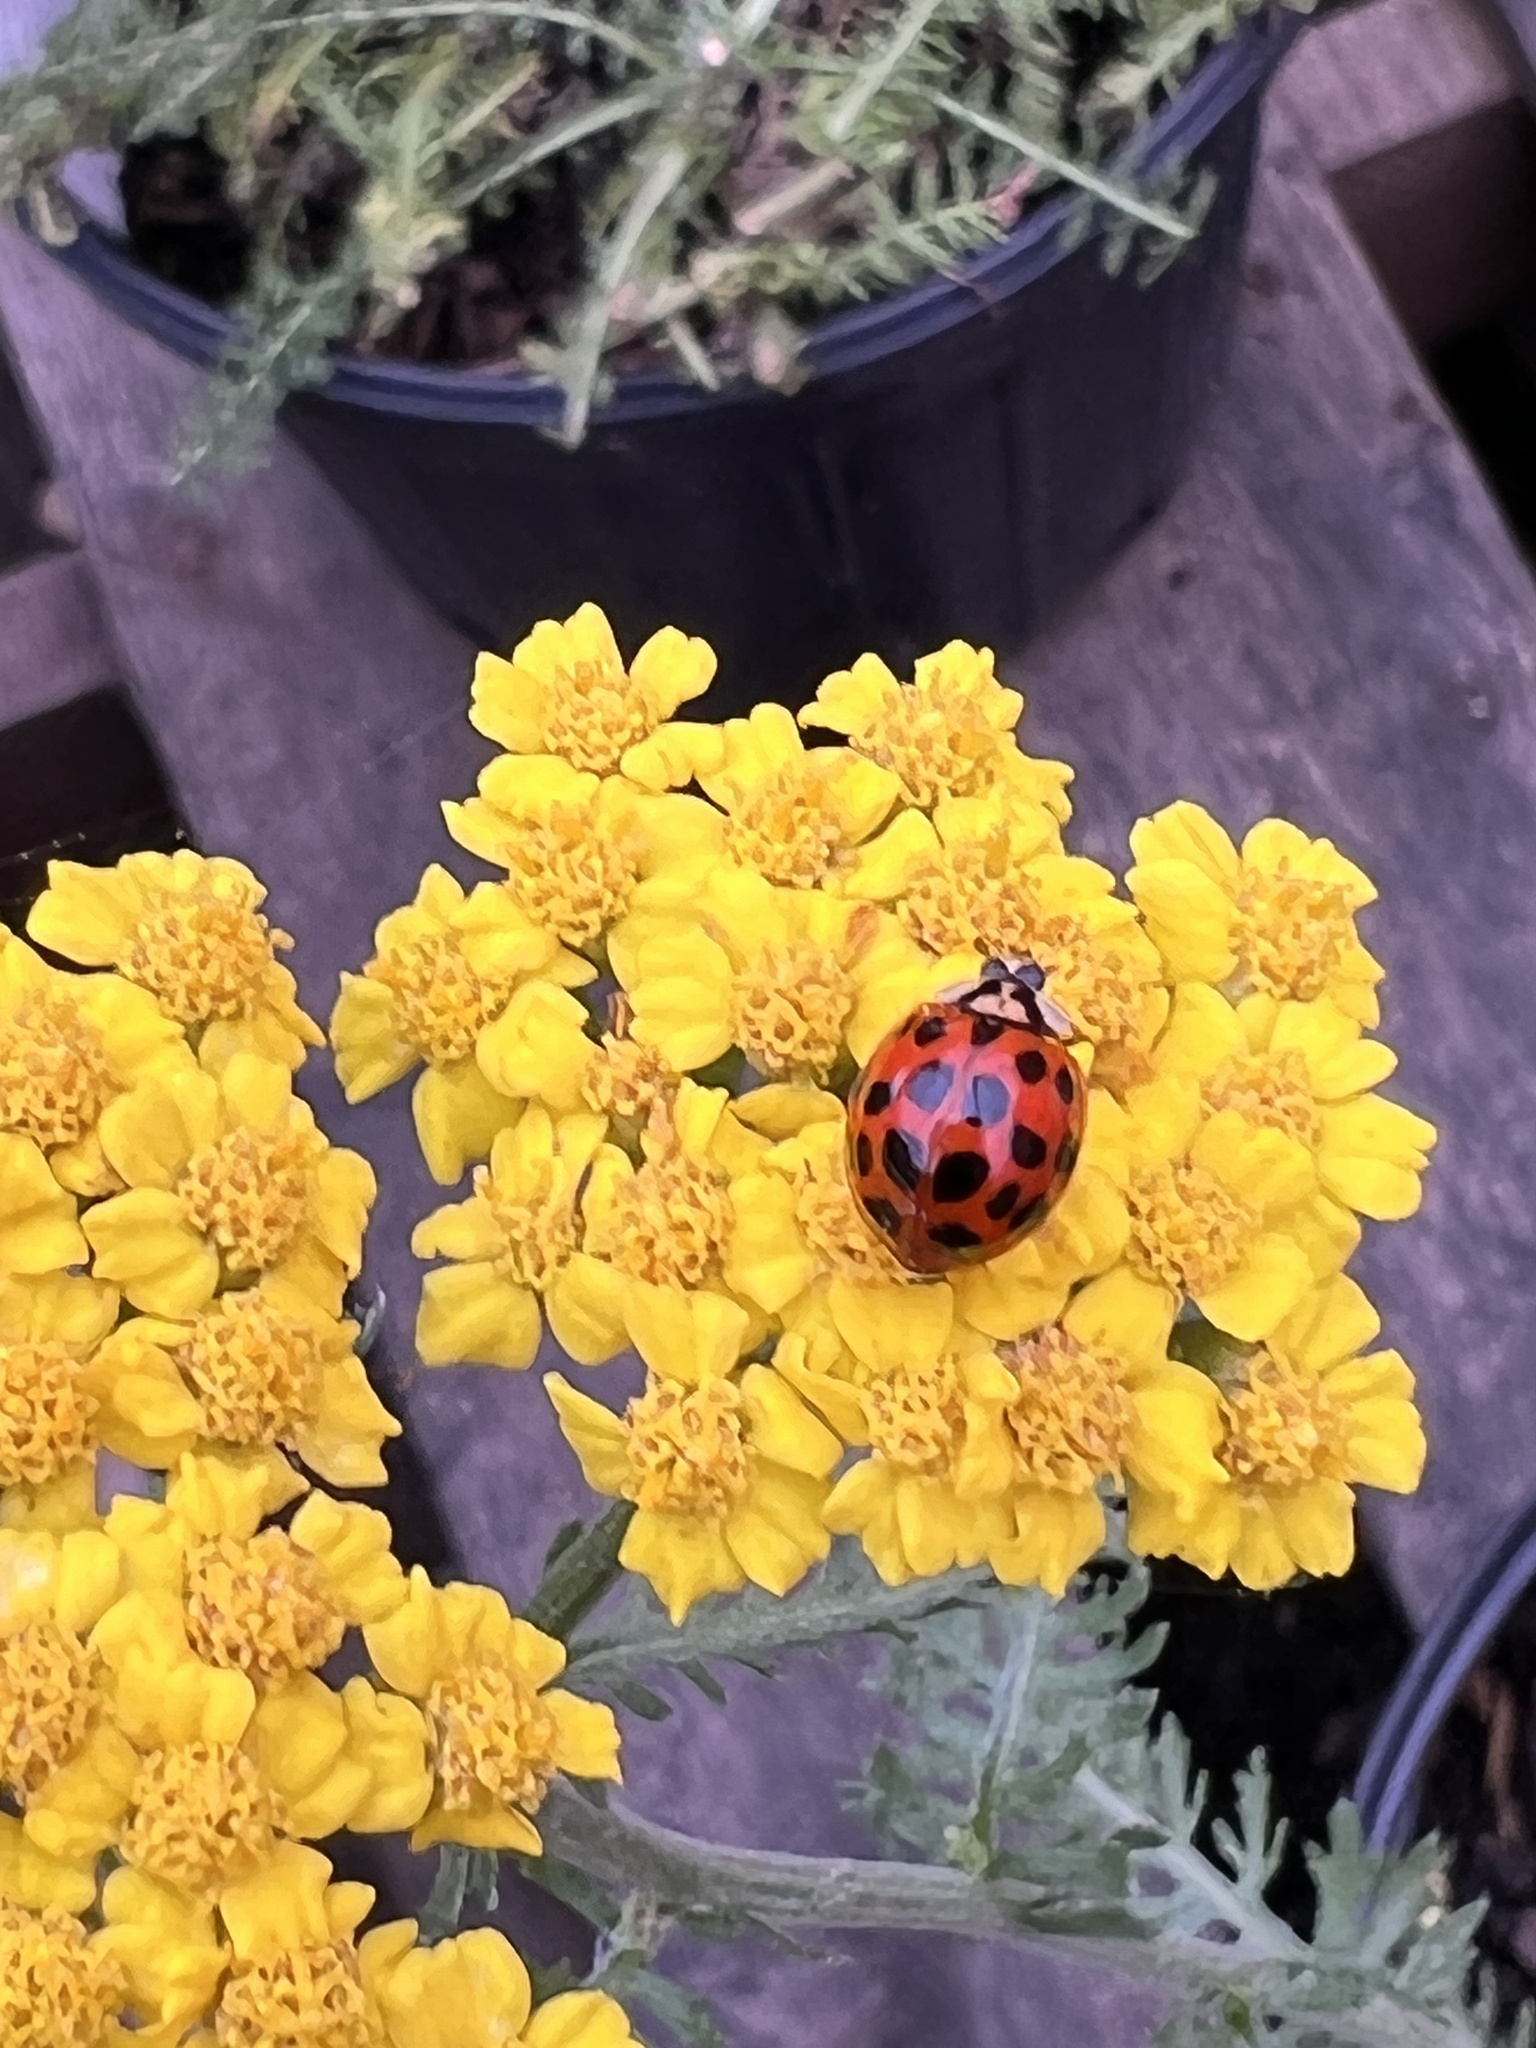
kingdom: Animalia
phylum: Arthropoda
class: Insecta
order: Coleoptera
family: Coccinellidae
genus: Harmonia
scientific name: Harmonia axyridis
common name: Harlequin ladybird
